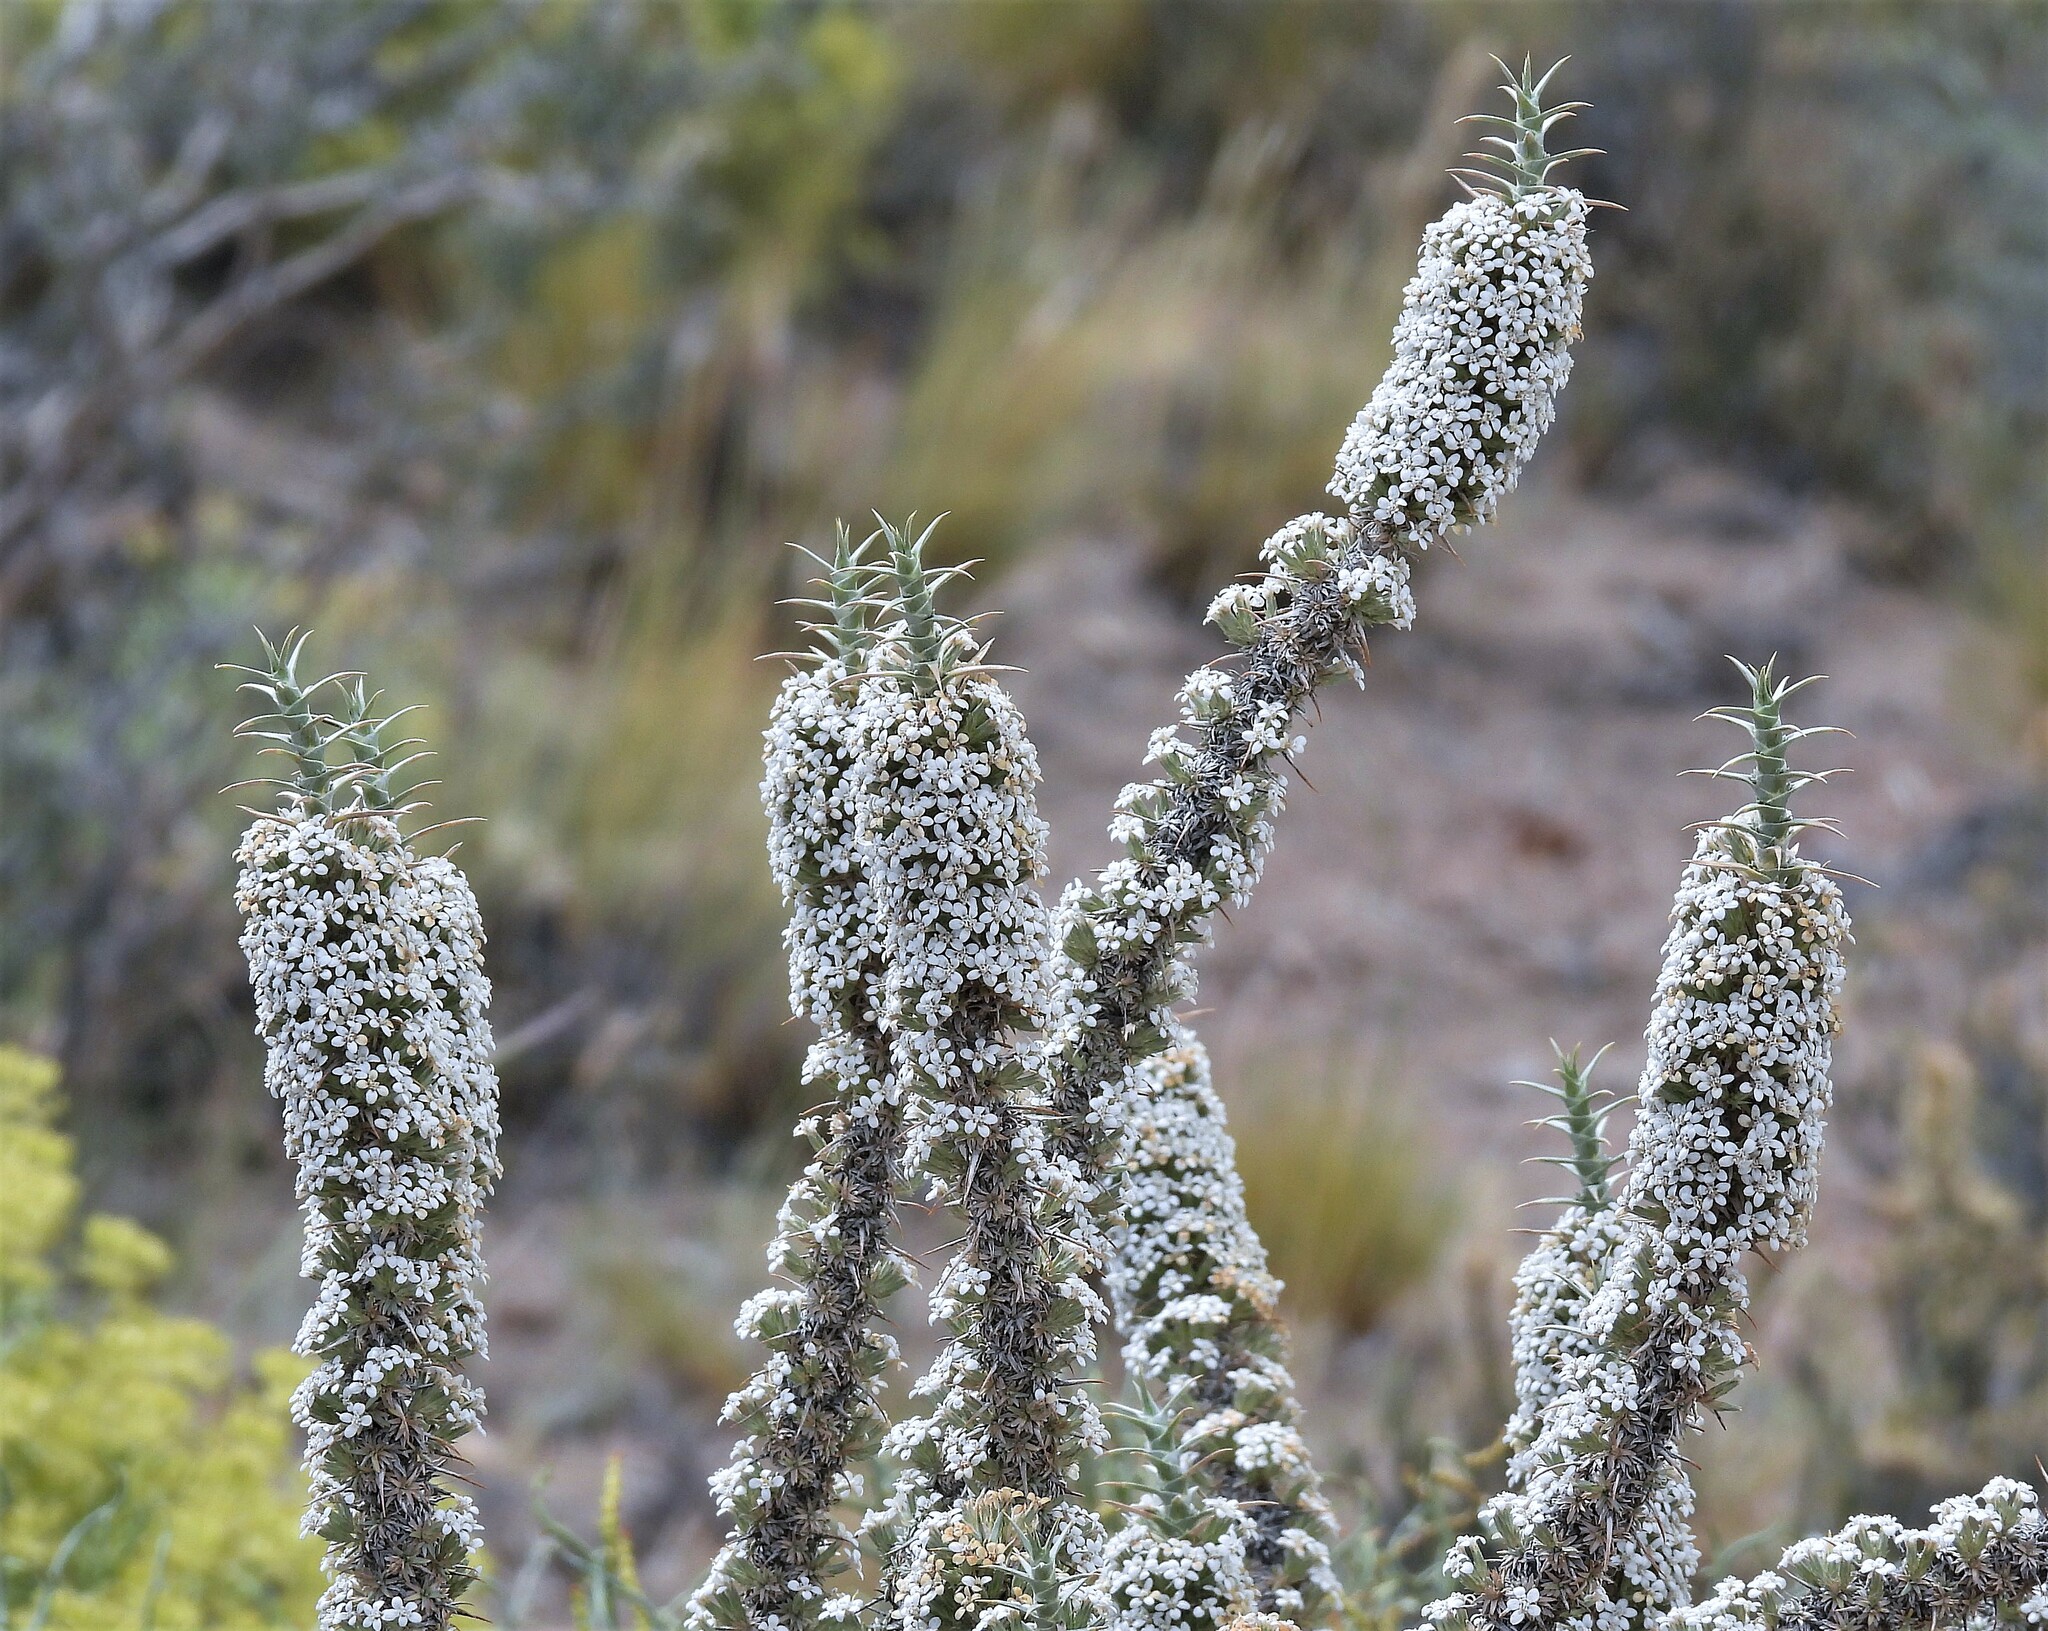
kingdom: Plantae
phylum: Tracheophyta
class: Magnoliopsida
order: Asterales
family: Asteraceae
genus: Nassauvia
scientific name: Nassauvia axillaris
